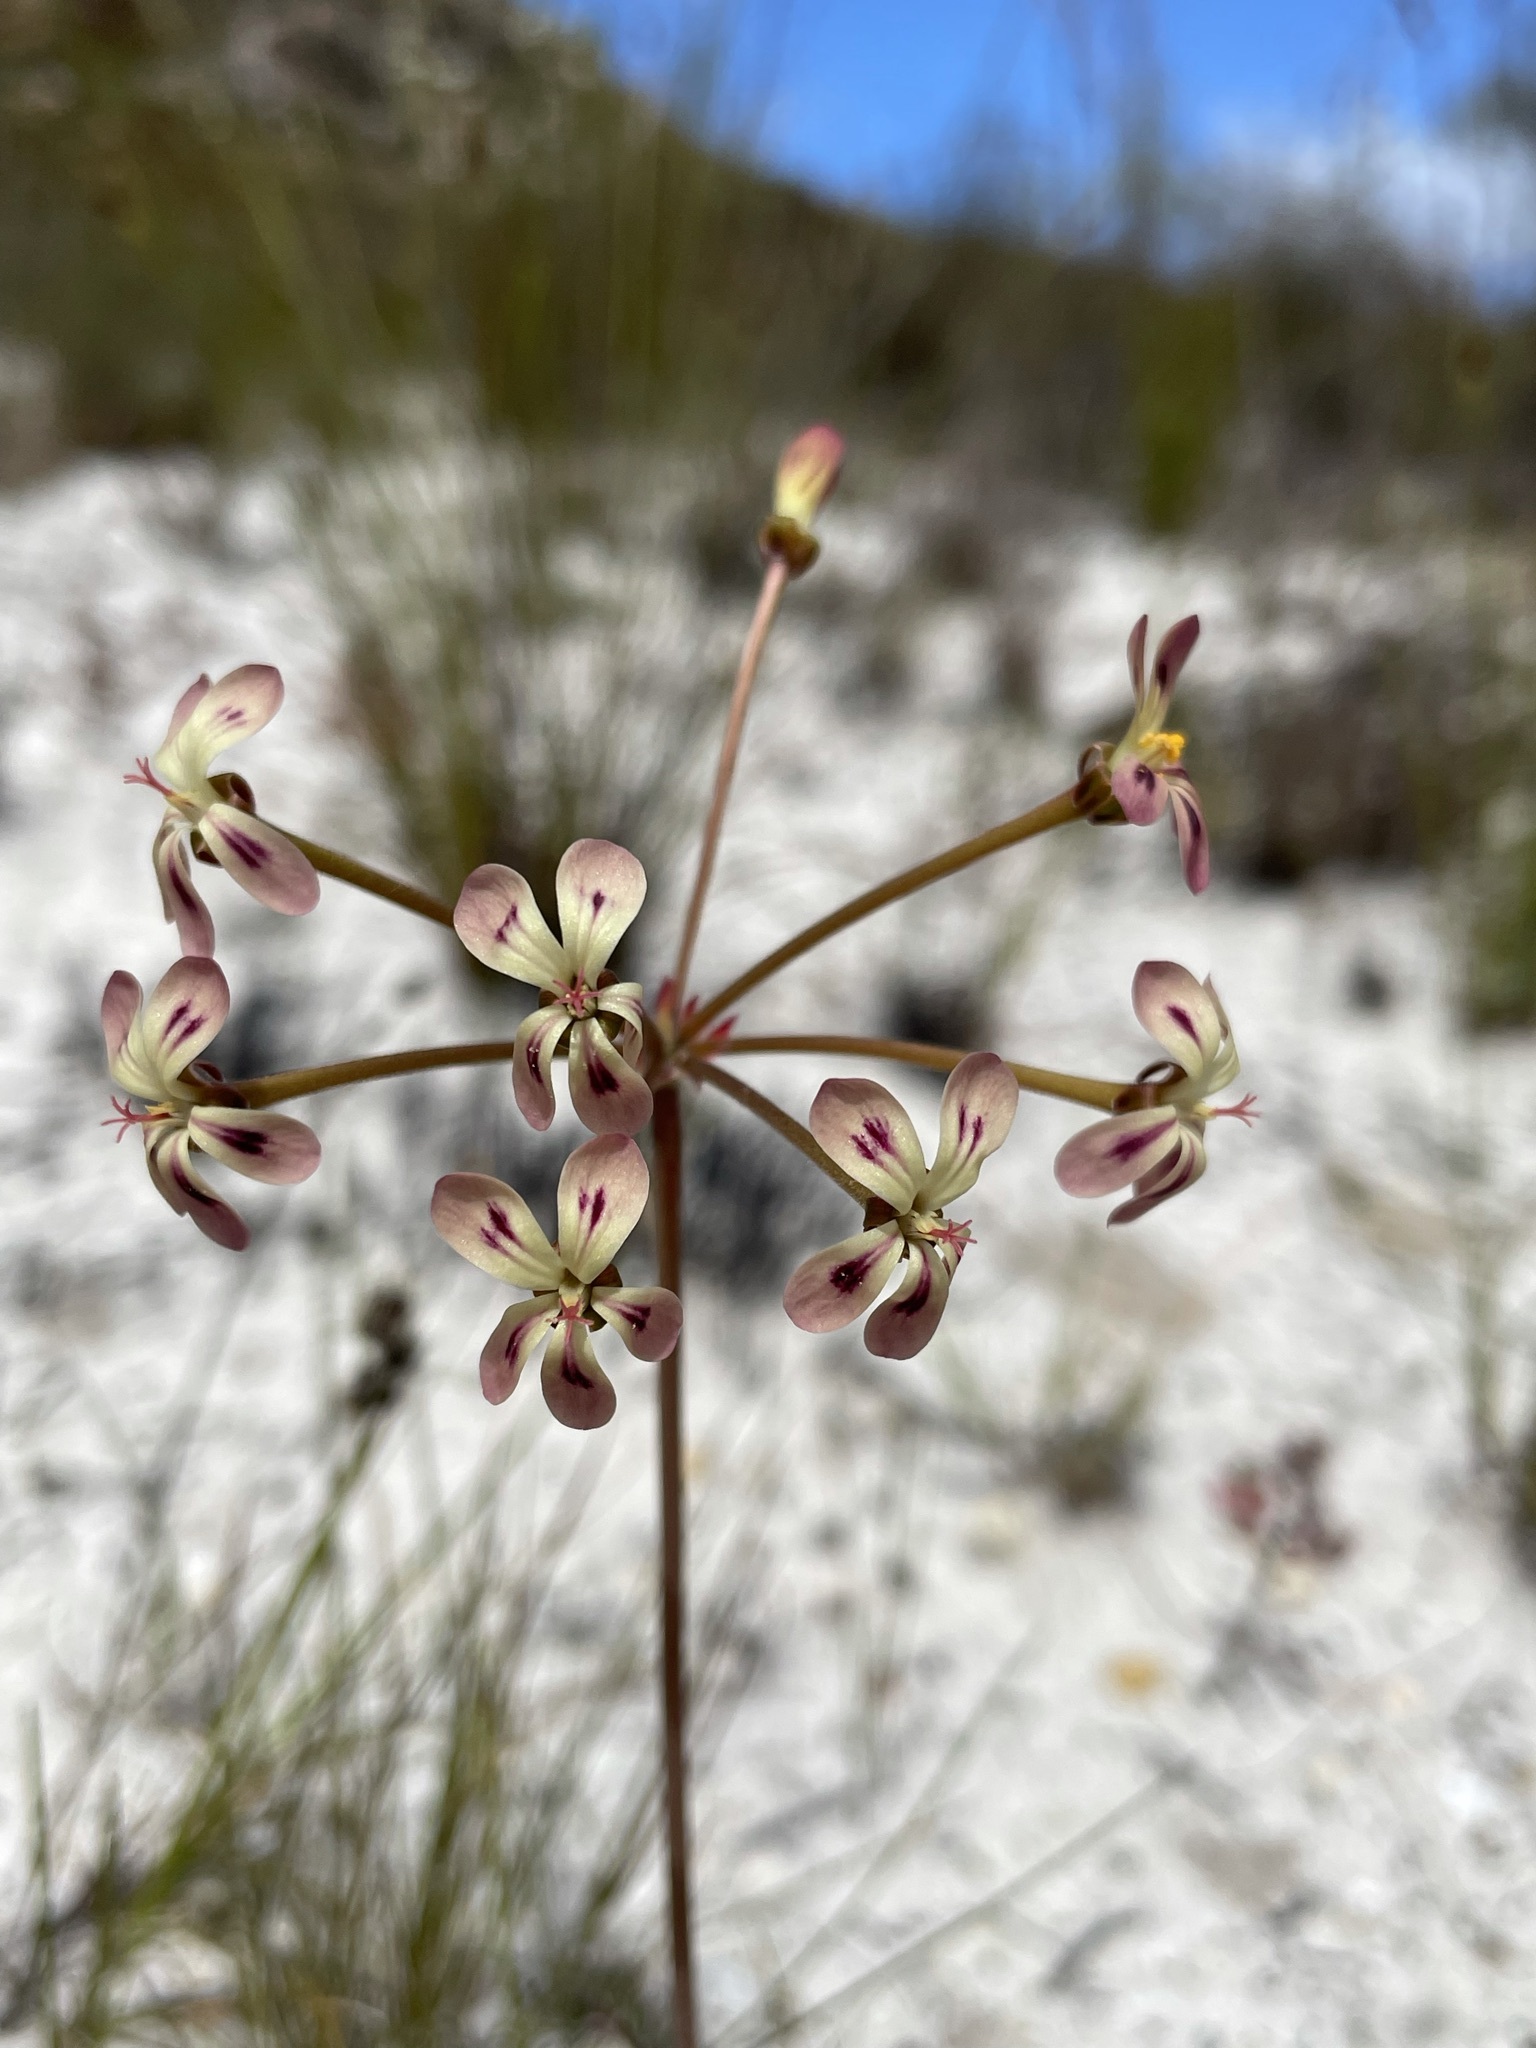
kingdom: Plantae
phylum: Tracheophyta
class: Magnoliopsida
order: Geraniales
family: Geraniaceae
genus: Pelargonium
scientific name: Pelargonium triste
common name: Night-scent pelargonium
